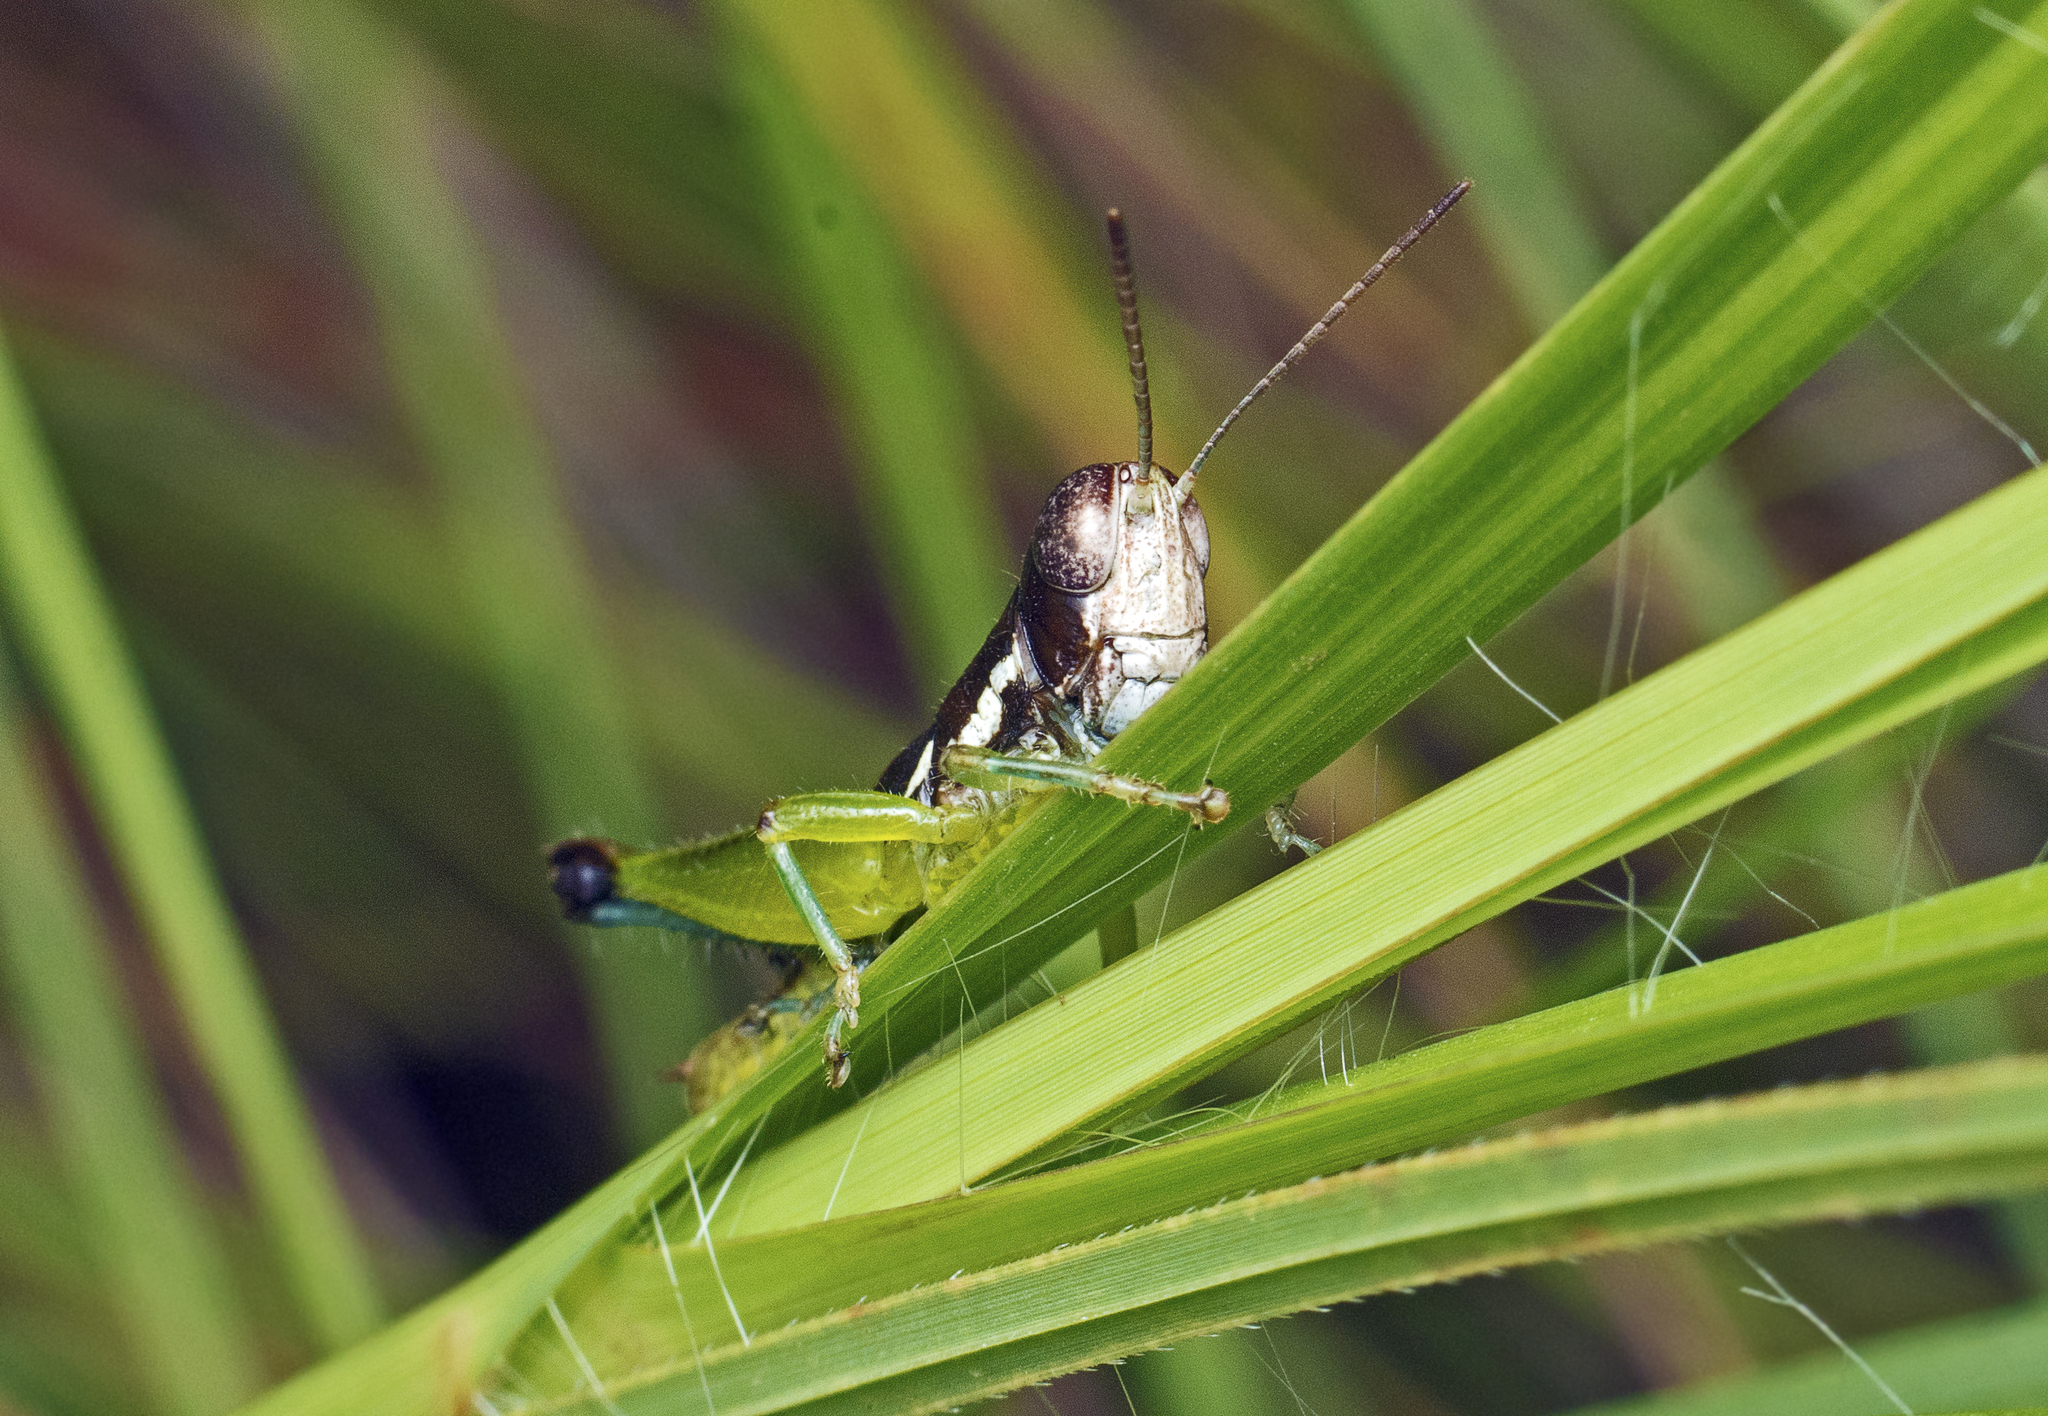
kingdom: Animalia
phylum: Arthropoda
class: Insecta
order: Orthoptera
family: Acrididae
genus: Methiolopsis
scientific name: Methiolopsis geniculata
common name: Little black-knees
